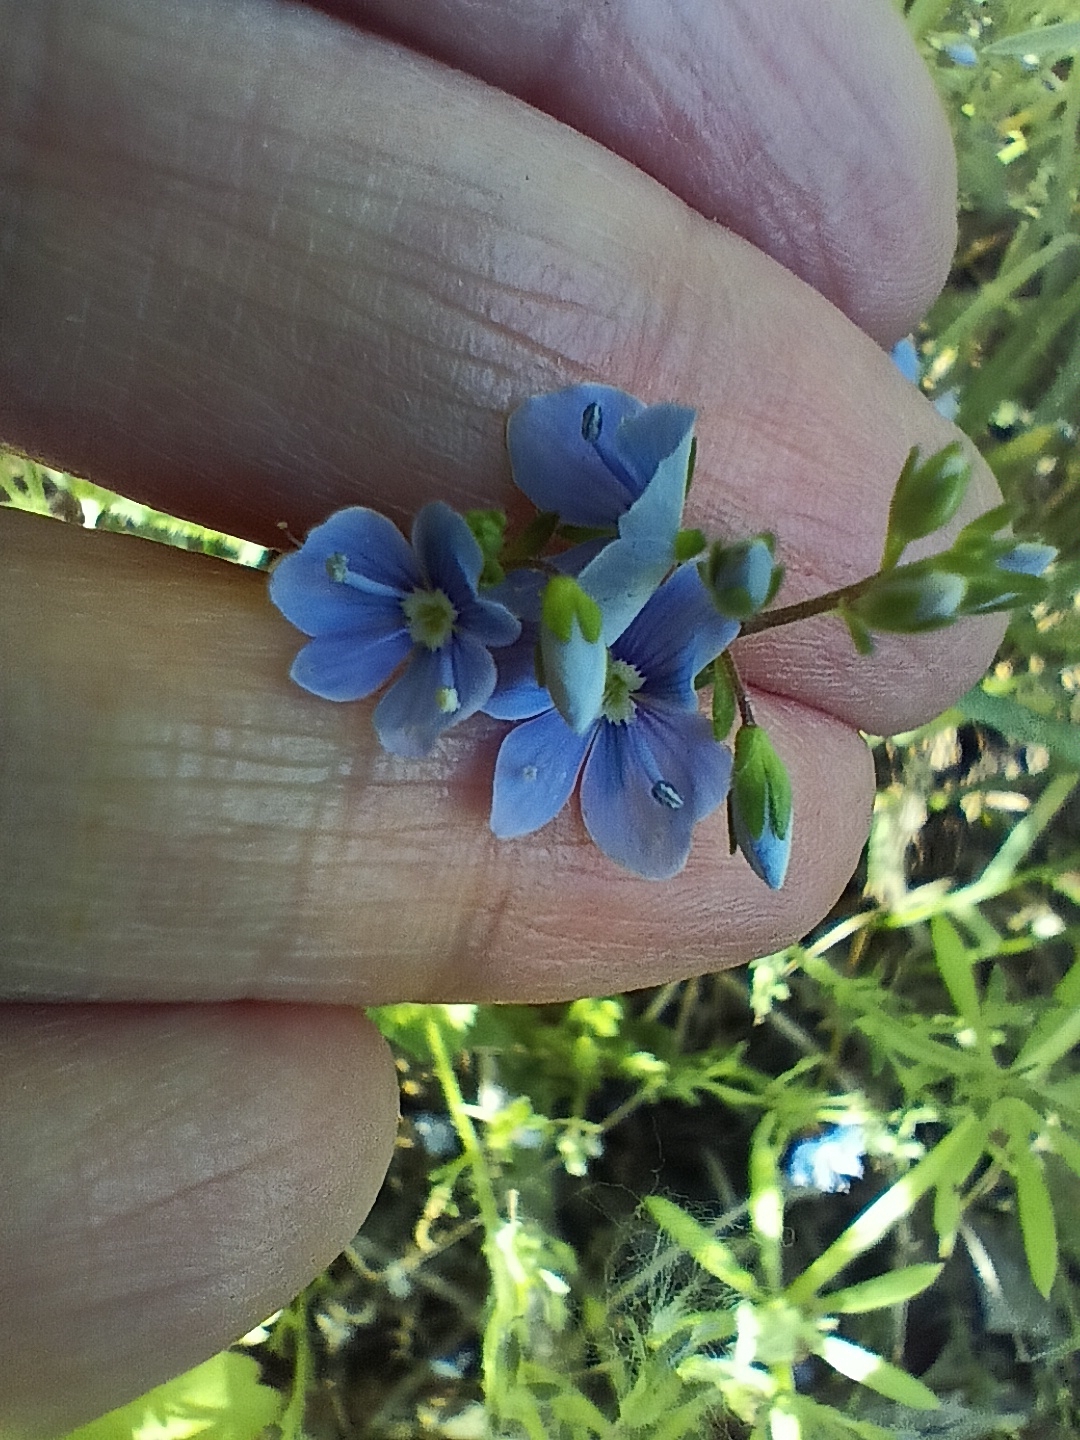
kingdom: Plantae
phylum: Tracheophyta
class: Magnoliopsida
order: Lamiales
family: Plantaginaceae
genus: Veronica
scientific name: Veronica chamaedrys
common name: Germander speedwell
